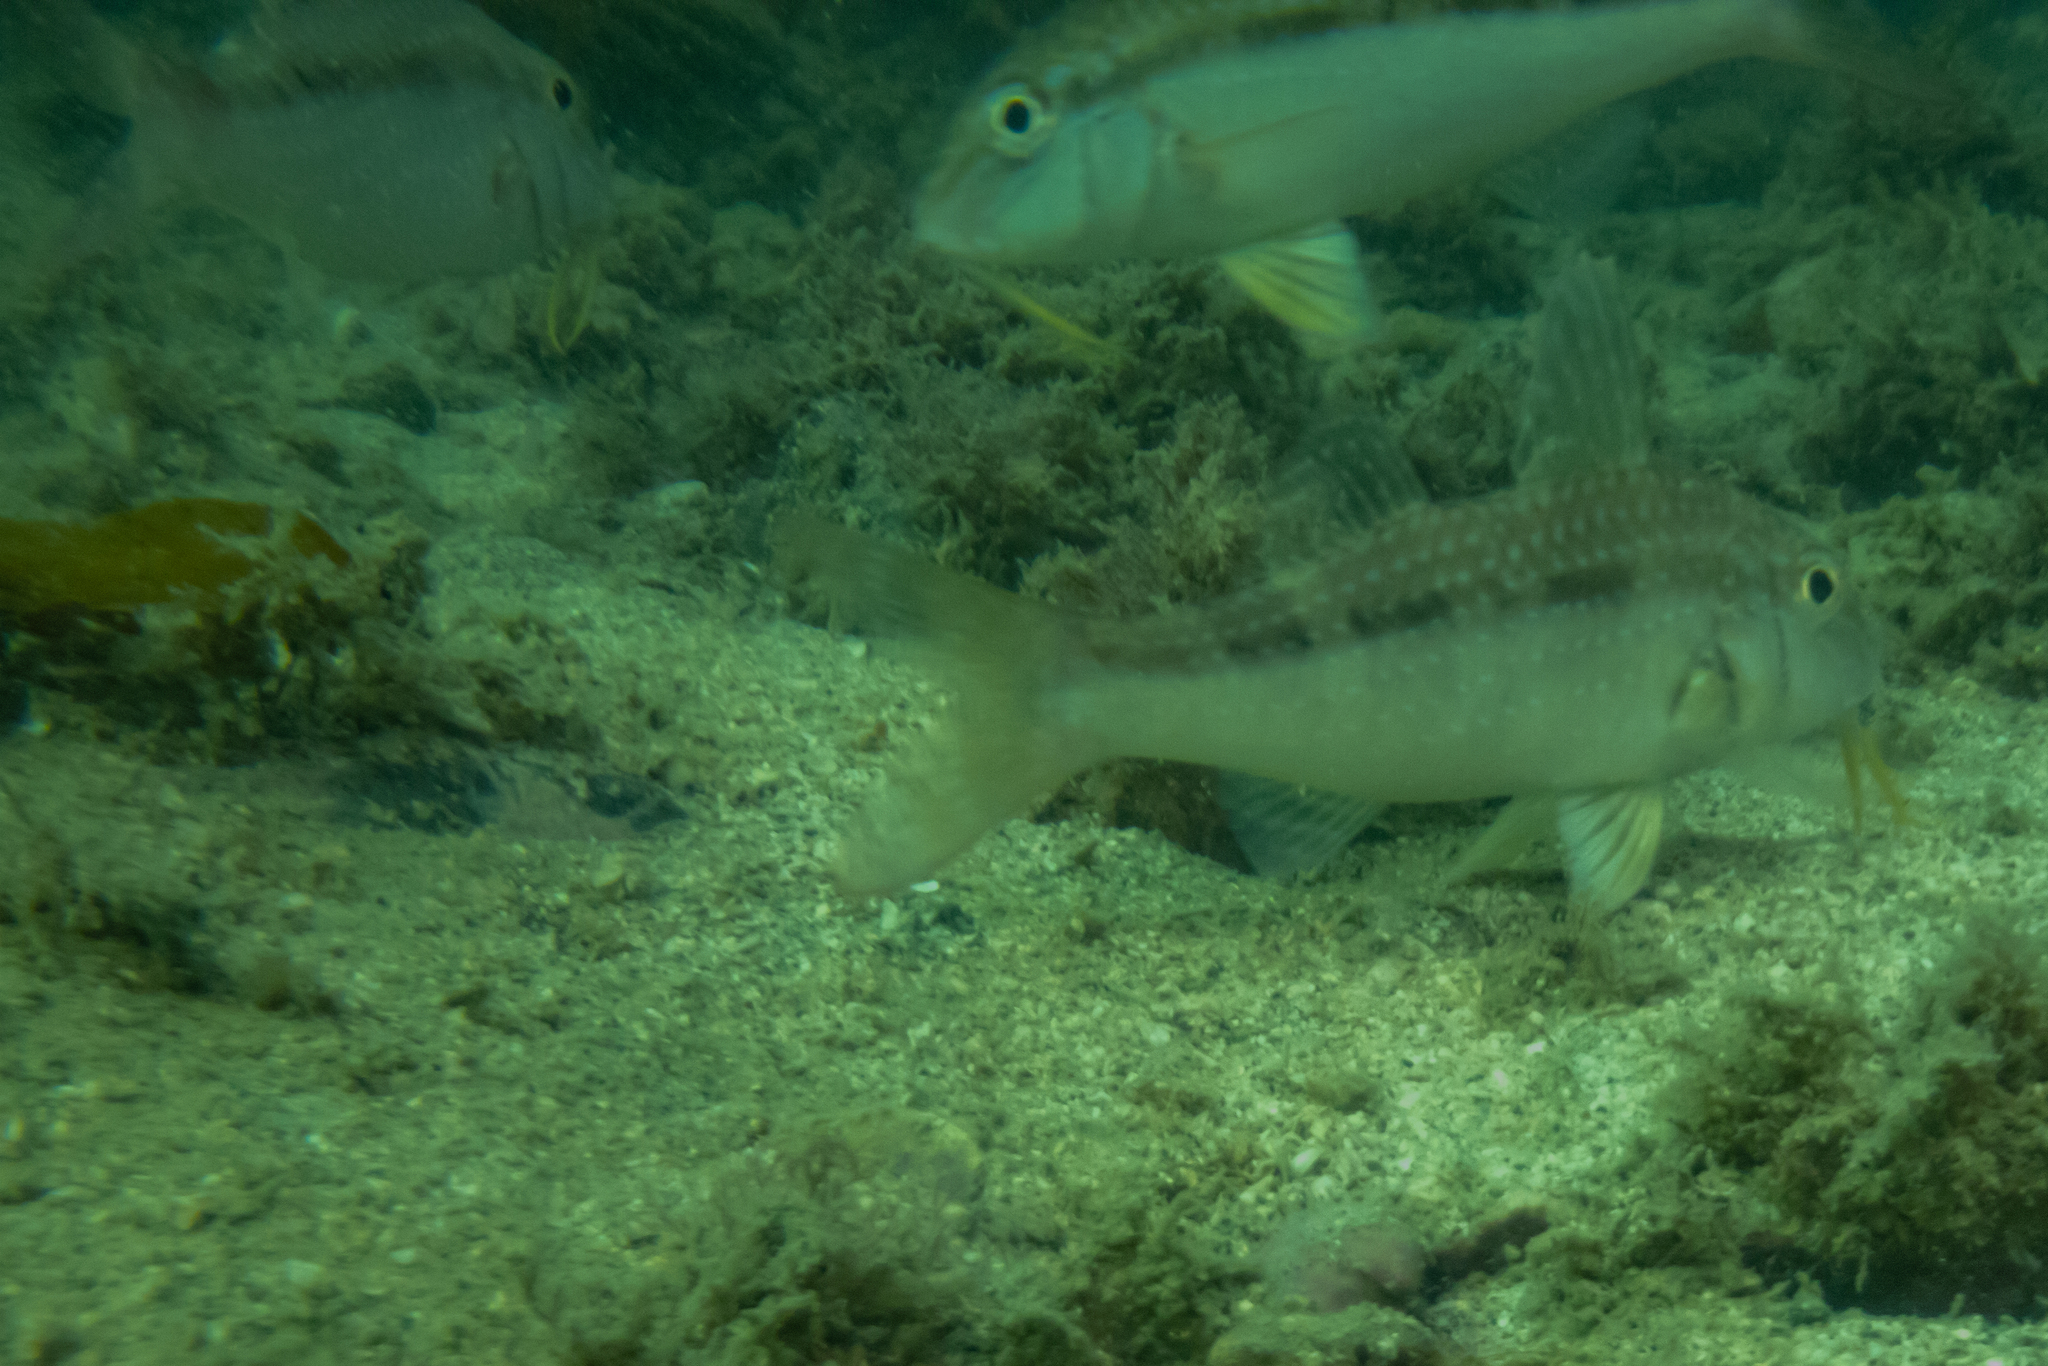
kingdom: Animalia
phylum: Chordata
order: Perciformes
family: Mullidae
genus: Upeneichthys
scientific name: Upeneichthys lineatus
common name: Red mullet
